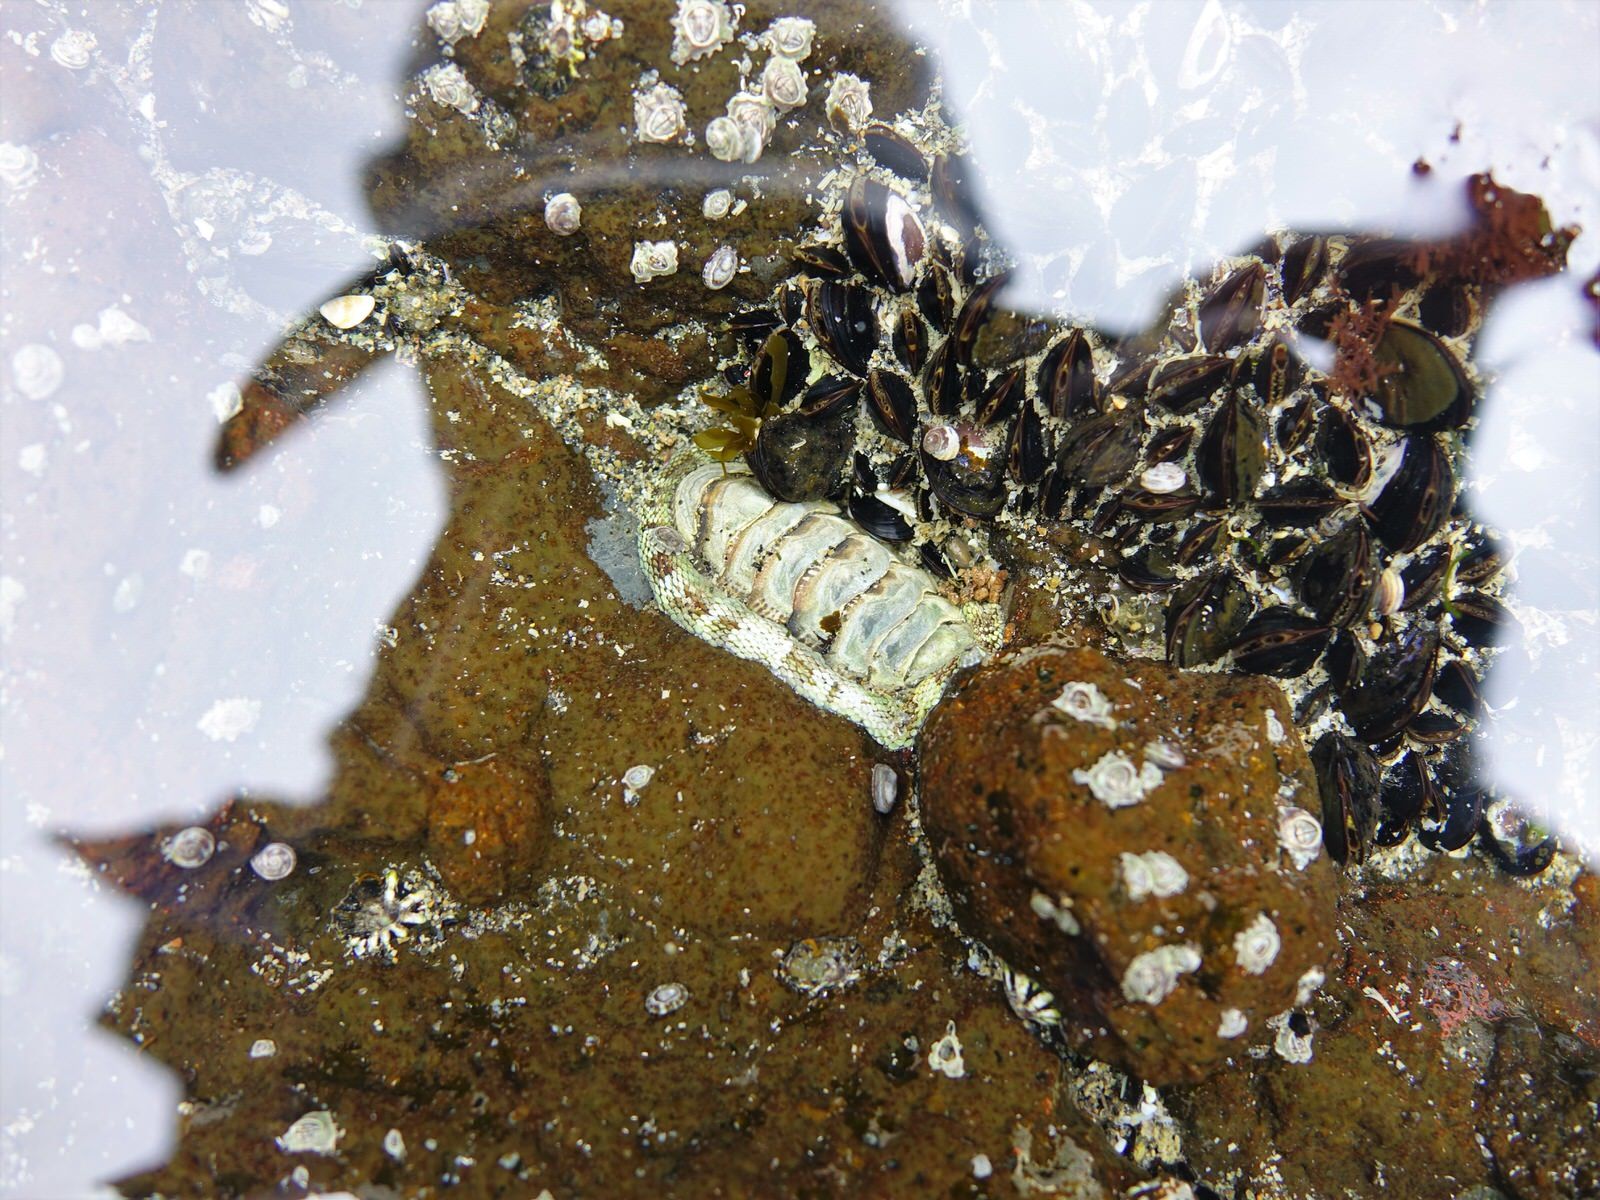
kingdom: Animalia
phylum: Mollusca
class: Polyplacophora
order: Chitonida
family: Chitonidae
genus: Sypharochiton
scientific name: Sypharochiton pelliserpentis
